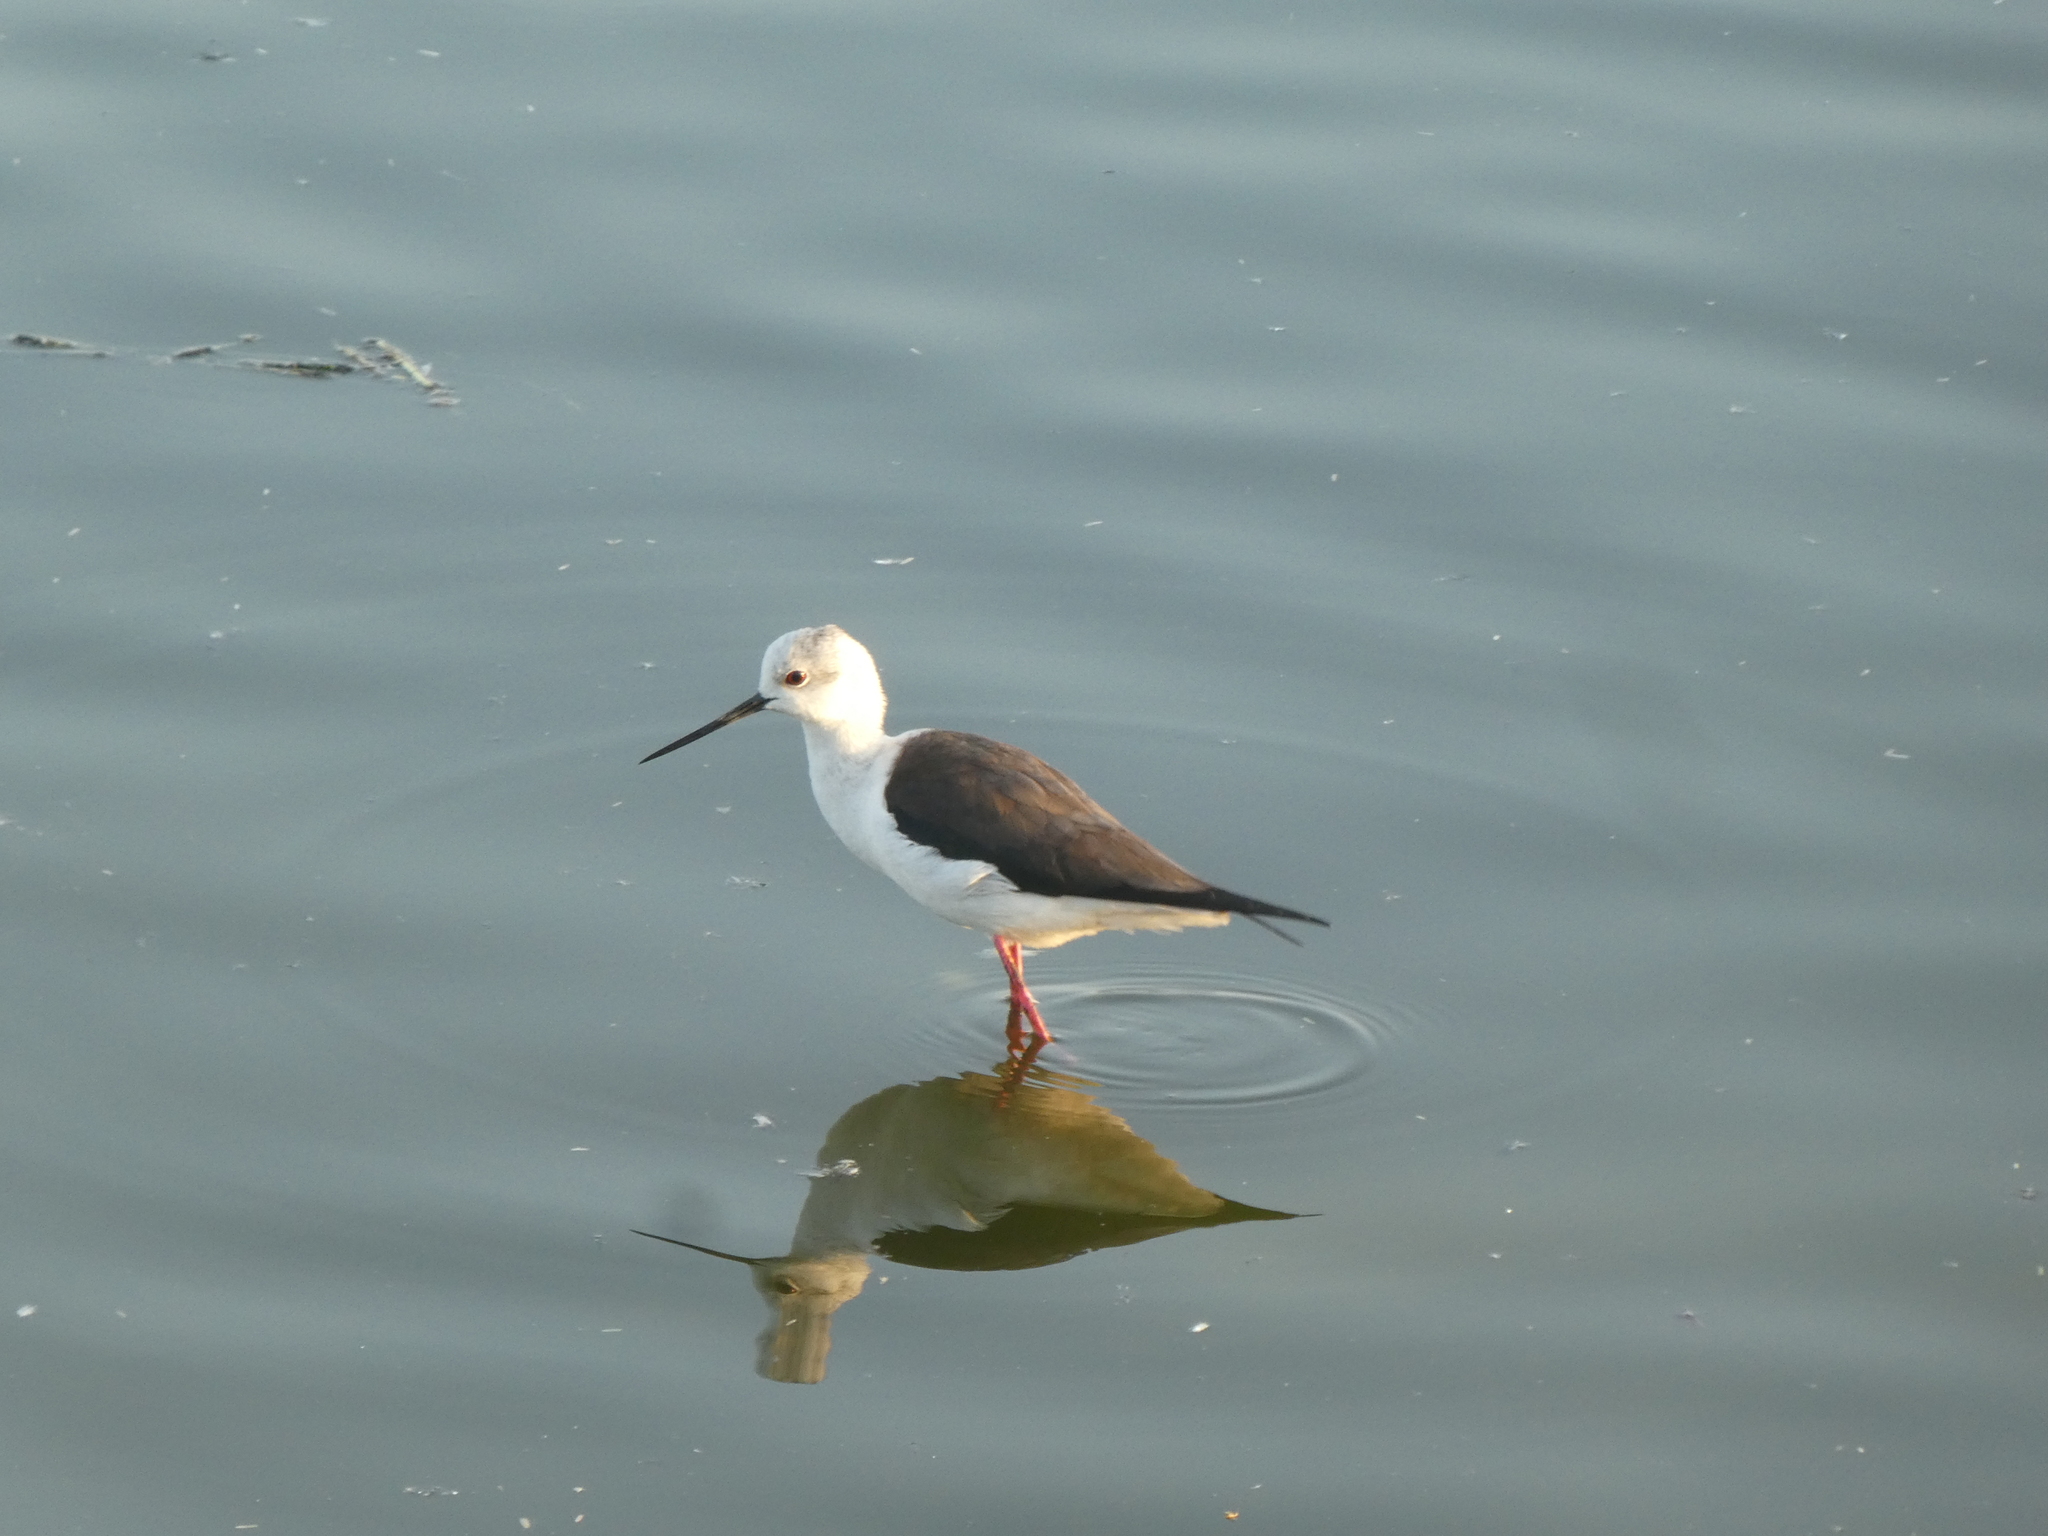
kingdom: Animalia
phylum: Chordata
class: Aves
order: Charadriiformes
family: Recurvirostridae
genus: Himantopus
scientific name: Himantopus himantopus
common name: Black-winged stilt
